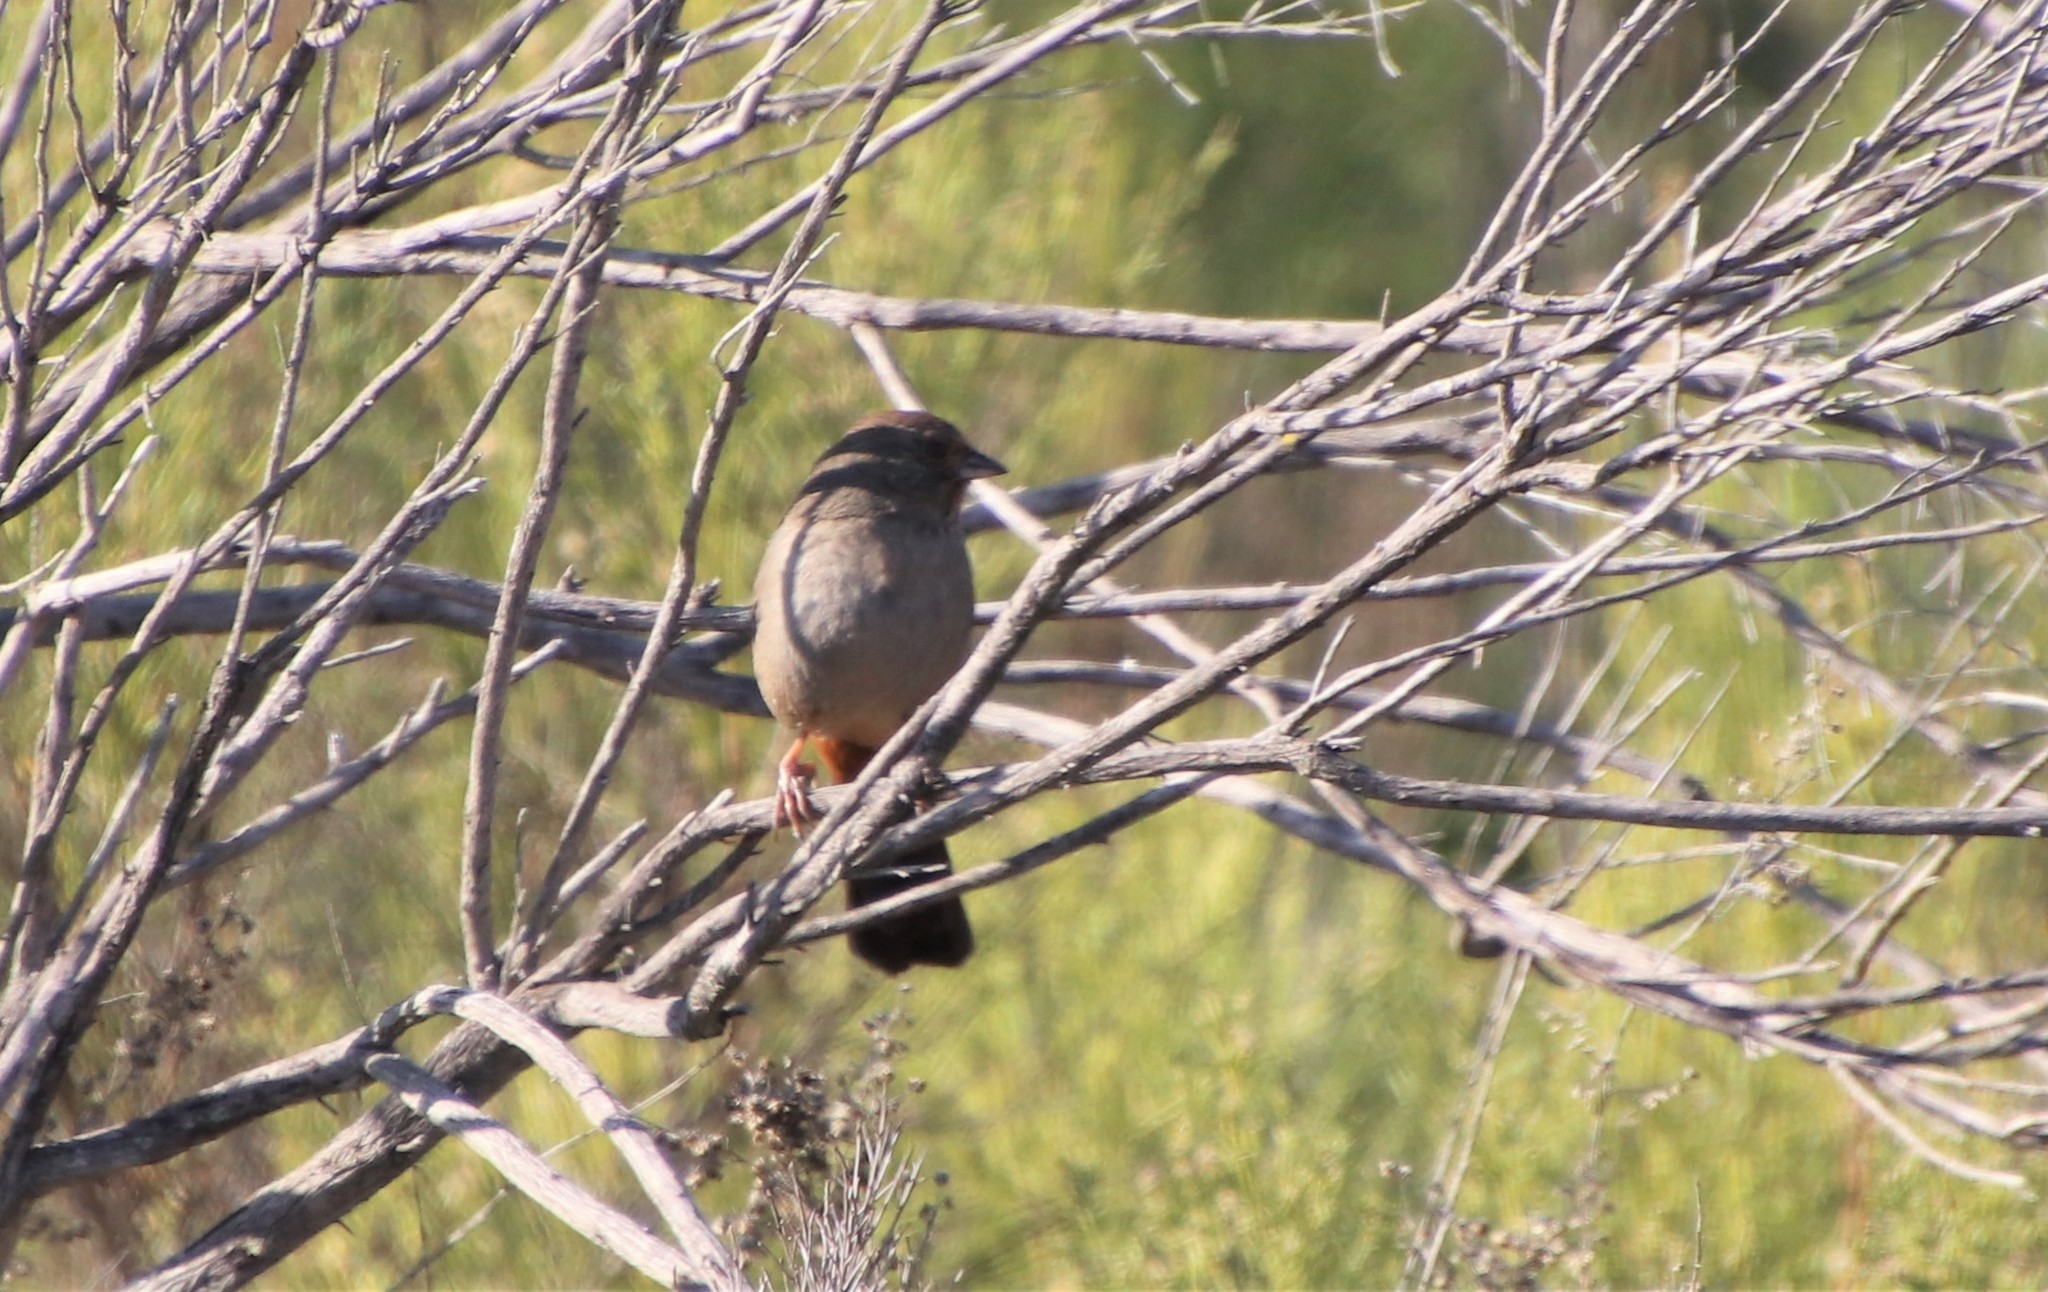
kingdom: Animalia
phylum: Chordata
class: Aves
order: Passeriformes
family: Passerellidae
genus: Melozone
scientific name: Melozone crissalis
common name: California towhee
